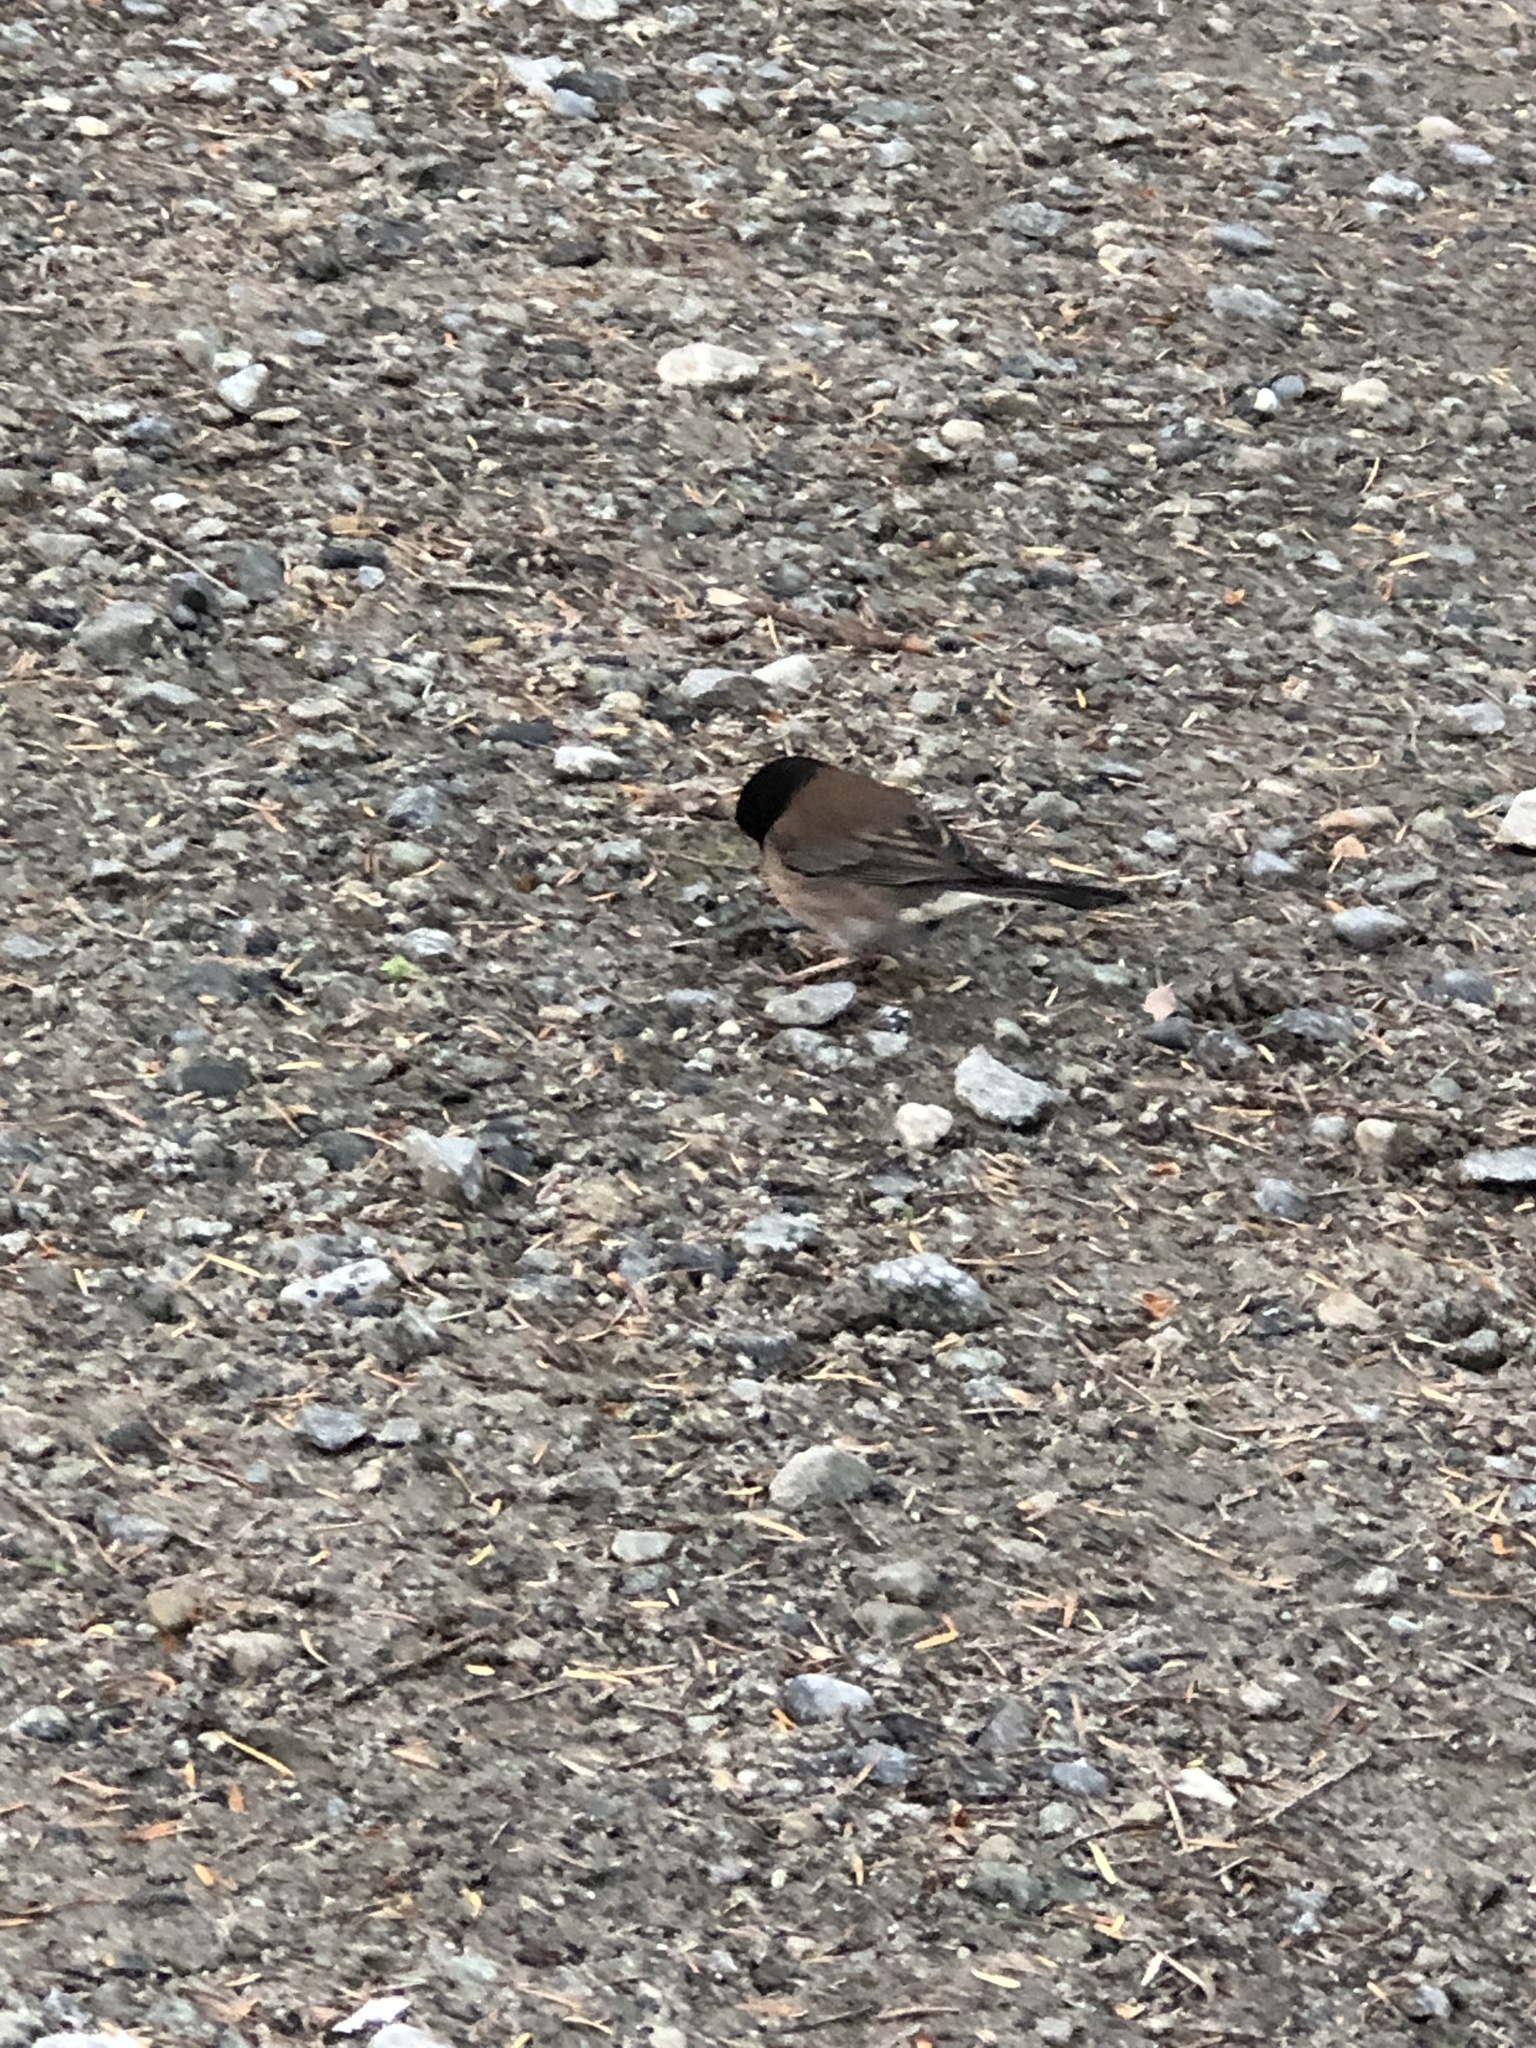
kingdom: Animalia
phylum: Chordata
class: Aves
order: Passeriformes
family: Passerellidae
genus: Junco
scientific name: Junco hyemalis
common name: Dark-eyed junco
